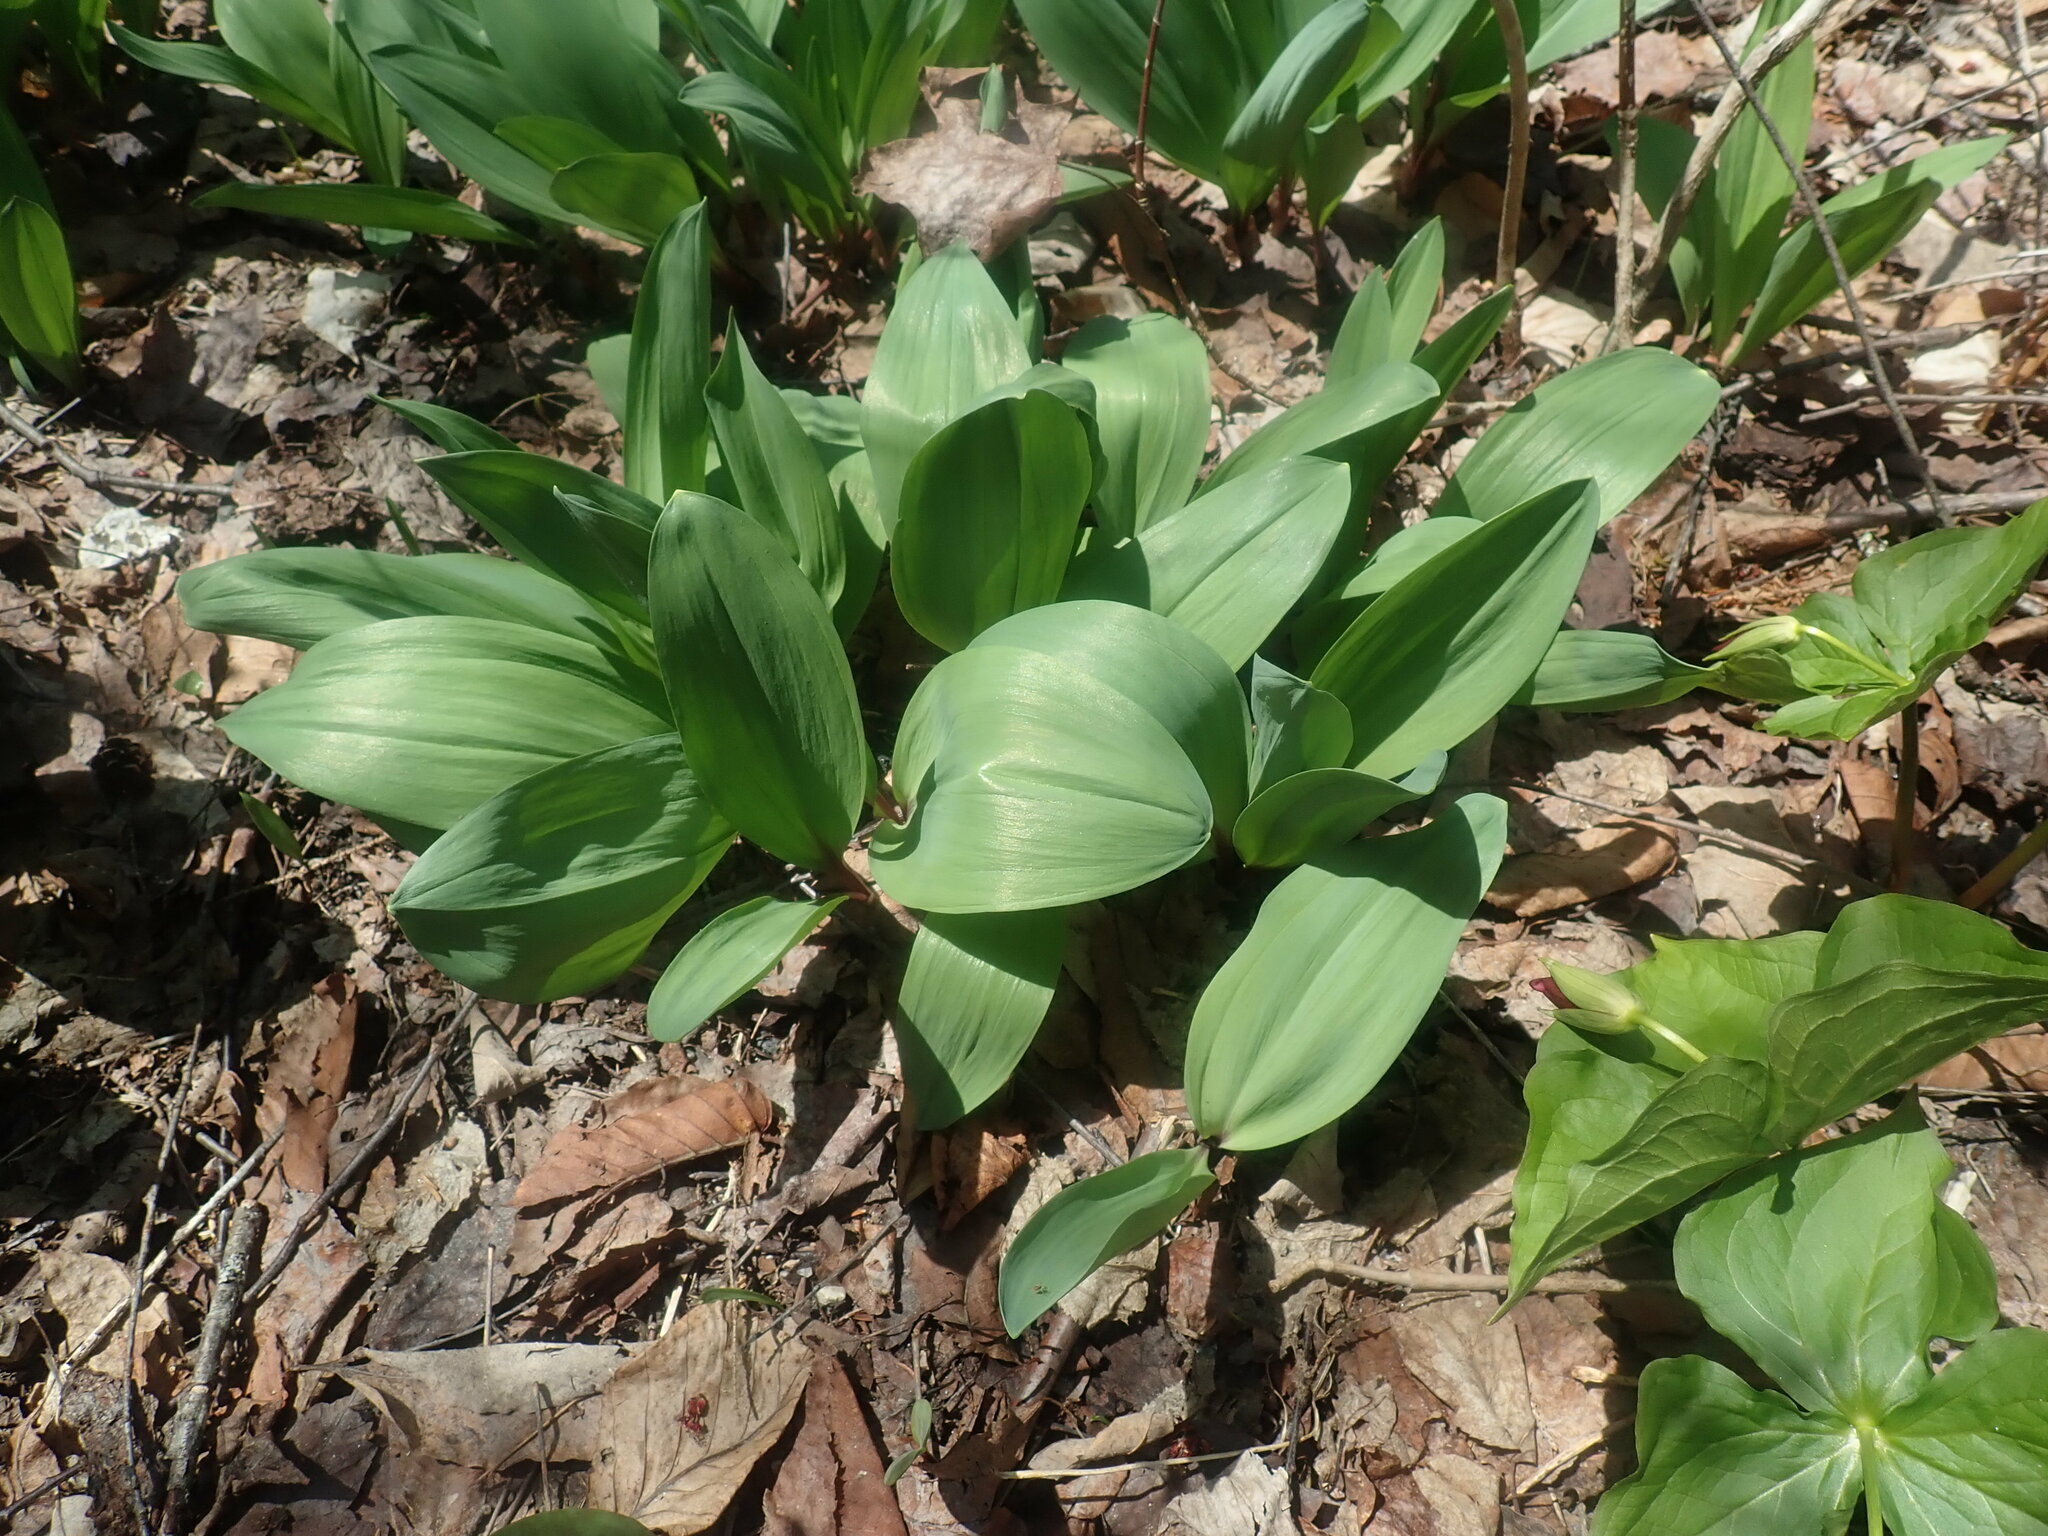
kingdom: Plantae
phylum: Tracheophyta
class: Liliopsida
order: Asparagales
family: Amaryllidaceae
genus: Allium
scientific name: Allium tricoccum
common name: Ramp
